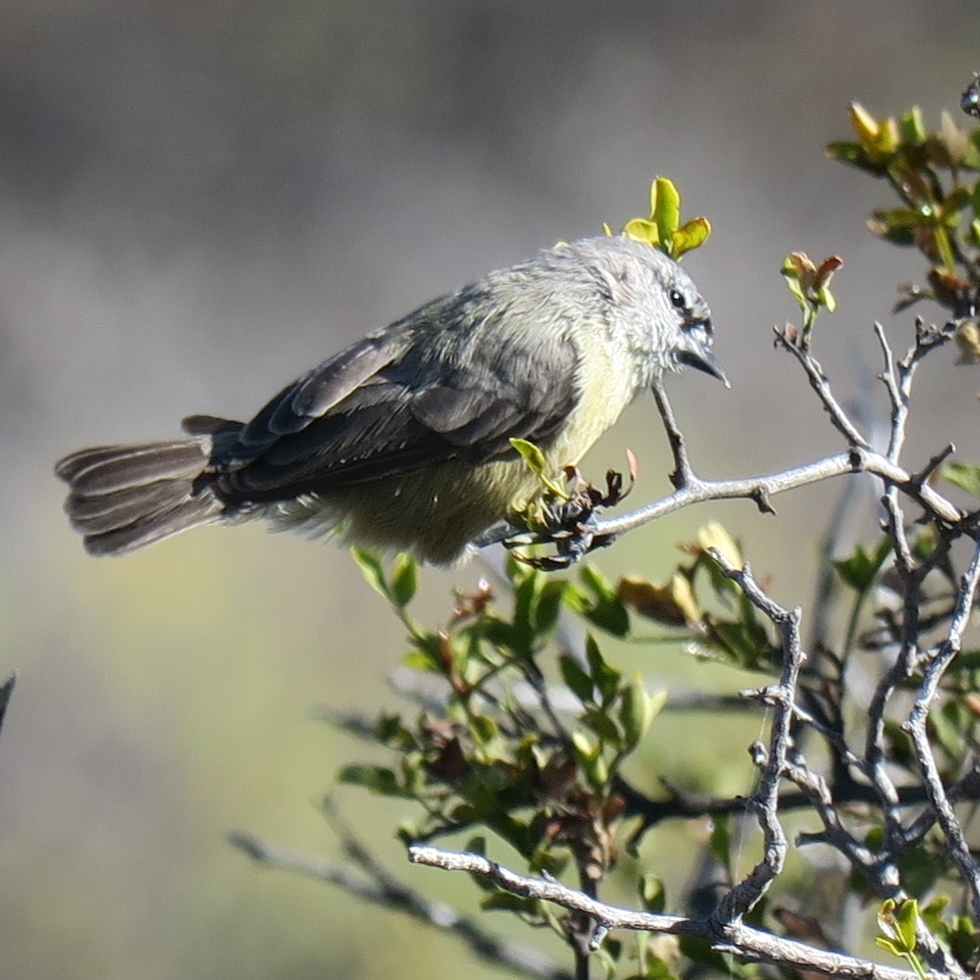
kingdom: Animalia
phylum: Chordata
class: Aves
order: Passeriformes
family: Remizidae
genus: Anthoscopus
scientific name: Anthoscopus minutus
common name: Cape penduline tit
